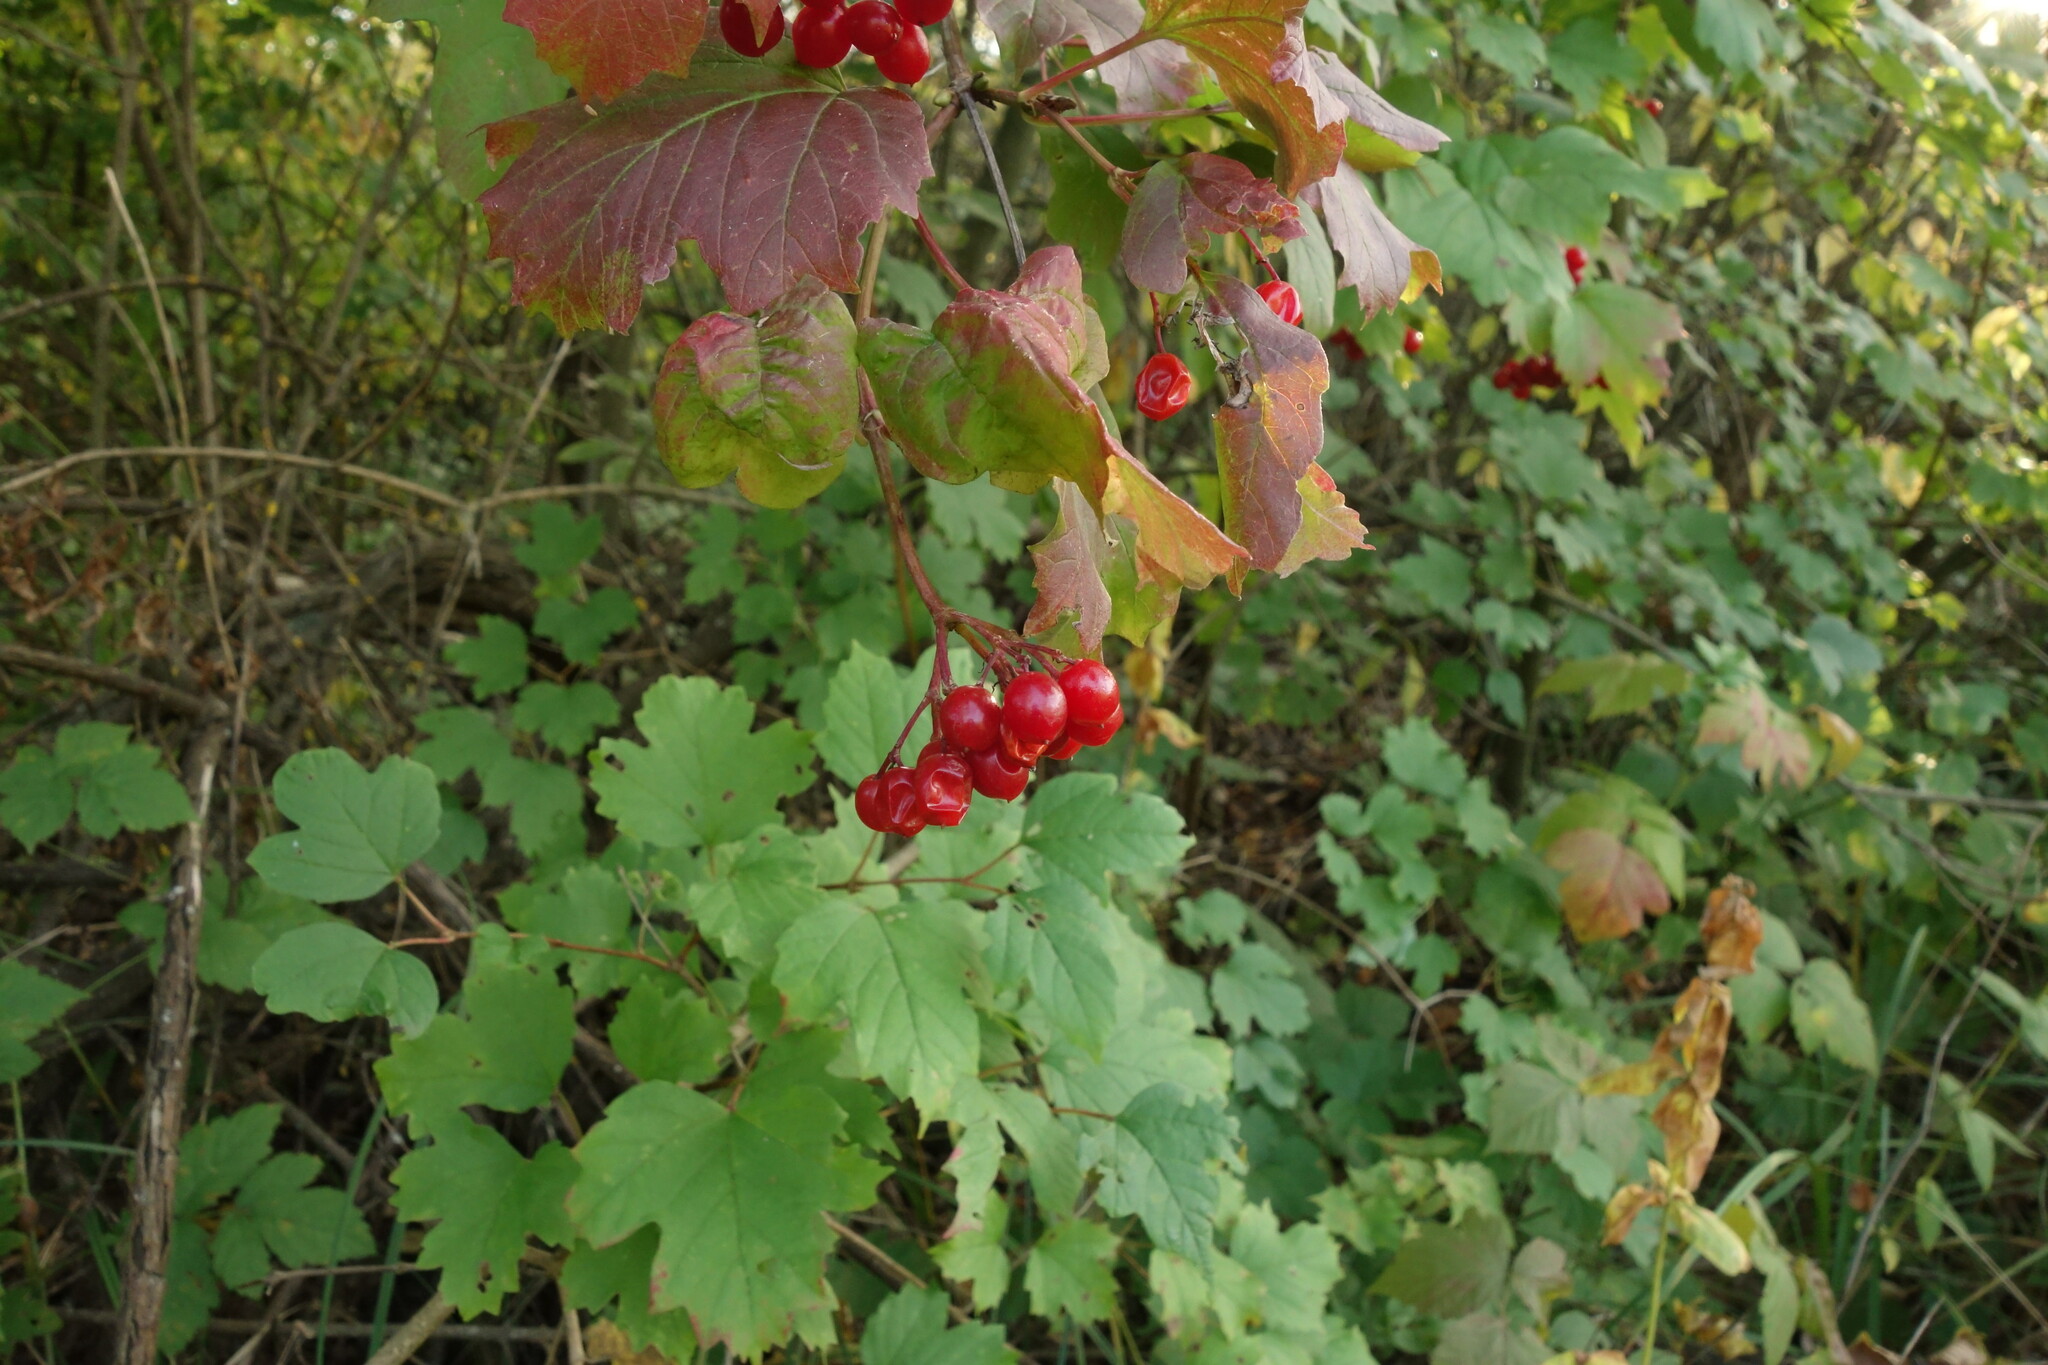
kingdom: Plantae
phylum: Tracheophyta
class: Magnoliopsida
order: Dipsacales
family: Viburnaceae
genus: Viburnum
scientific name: Viburnum opulus
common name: Guelder-rose
